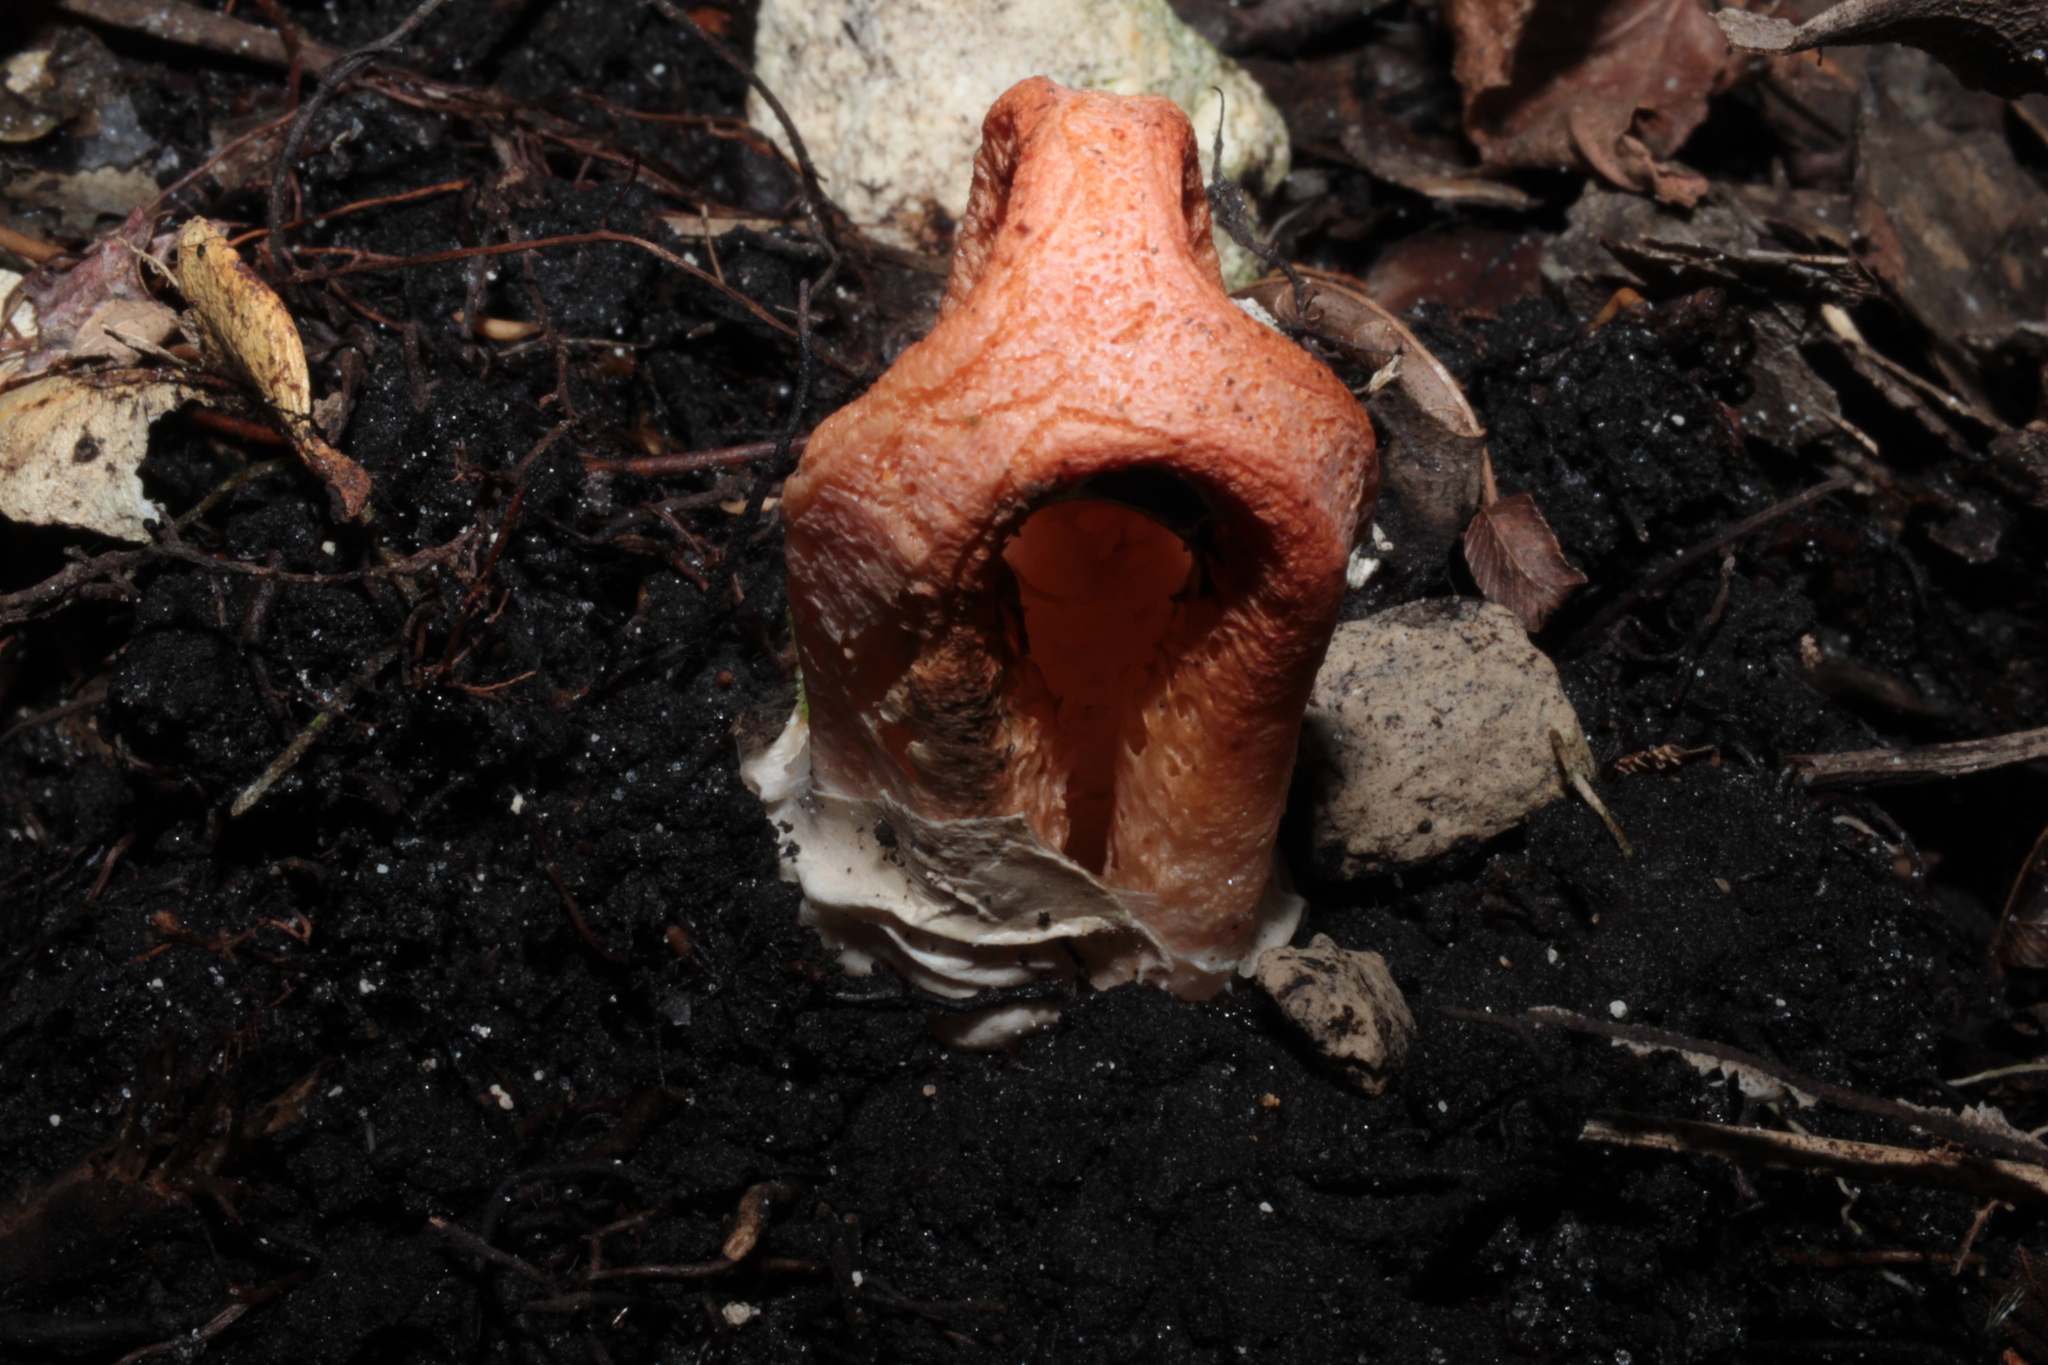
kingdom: Fungi
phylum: Basidiomycota
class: Agaricomycetes
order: Phallales
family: Phallaceae
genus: Clathrus
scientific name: Clathrus columnatus
